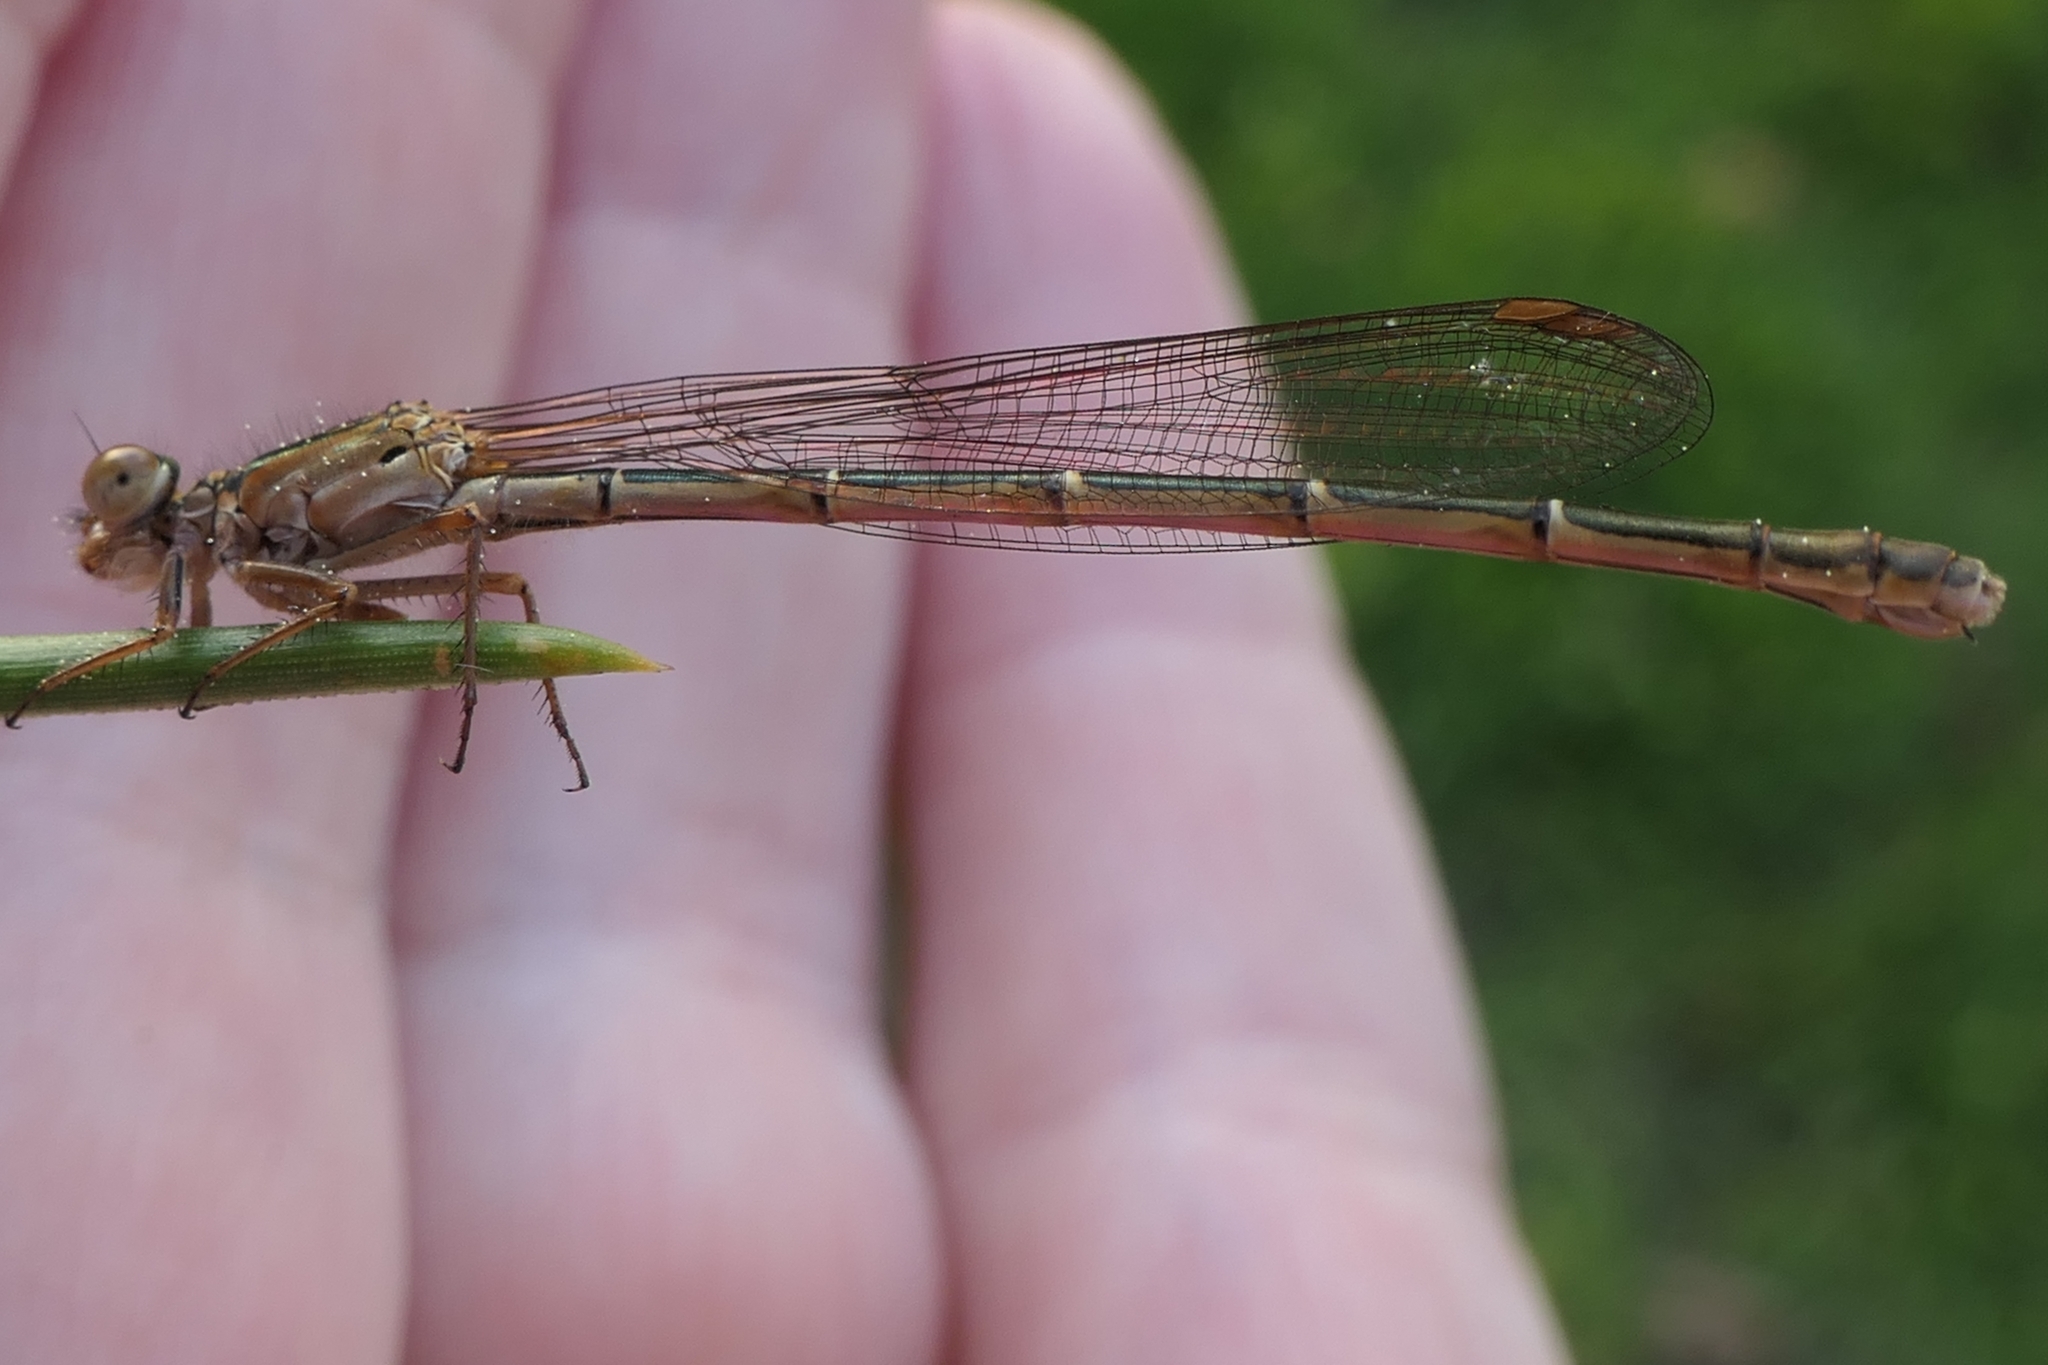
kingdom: Animalia
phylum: Arthropoda
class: Insecta
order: Odonata
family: Coenagrionidae
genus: Xanthocnemis
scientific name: Xanthocnemis zealandica
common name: Common redcoat damselfly
